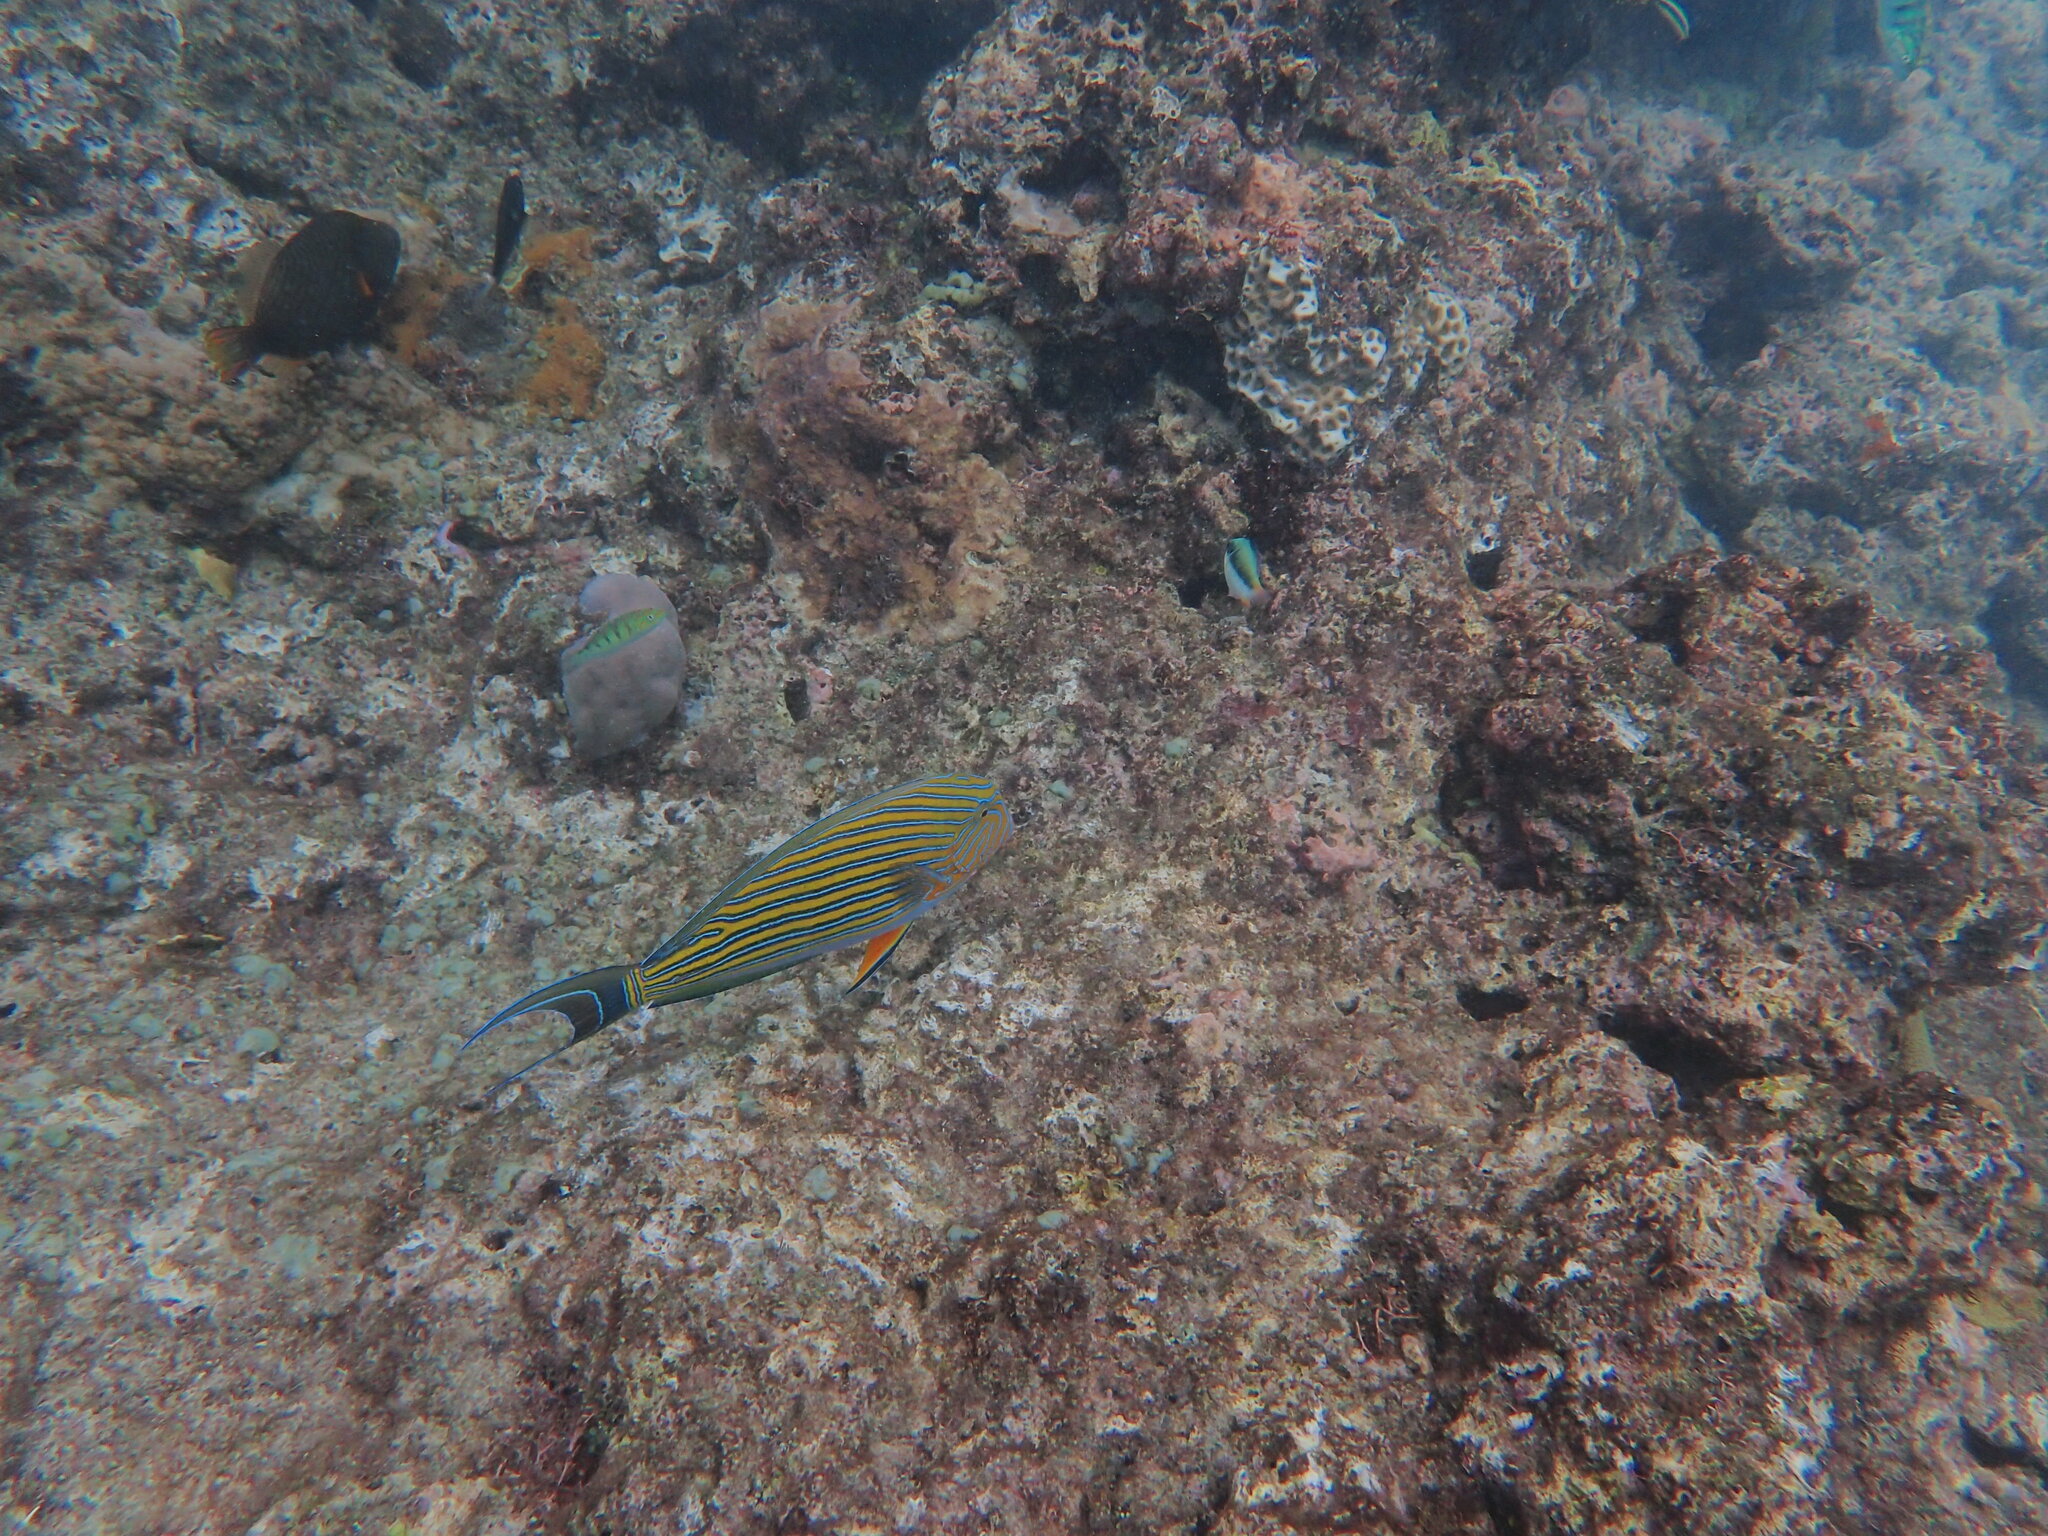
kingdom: Animalia
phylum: Chordata
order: Perciformes
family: Acanthuridae
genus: Acanthurus
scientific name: Acanthurus lineatus
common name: Striped surgeonfish
